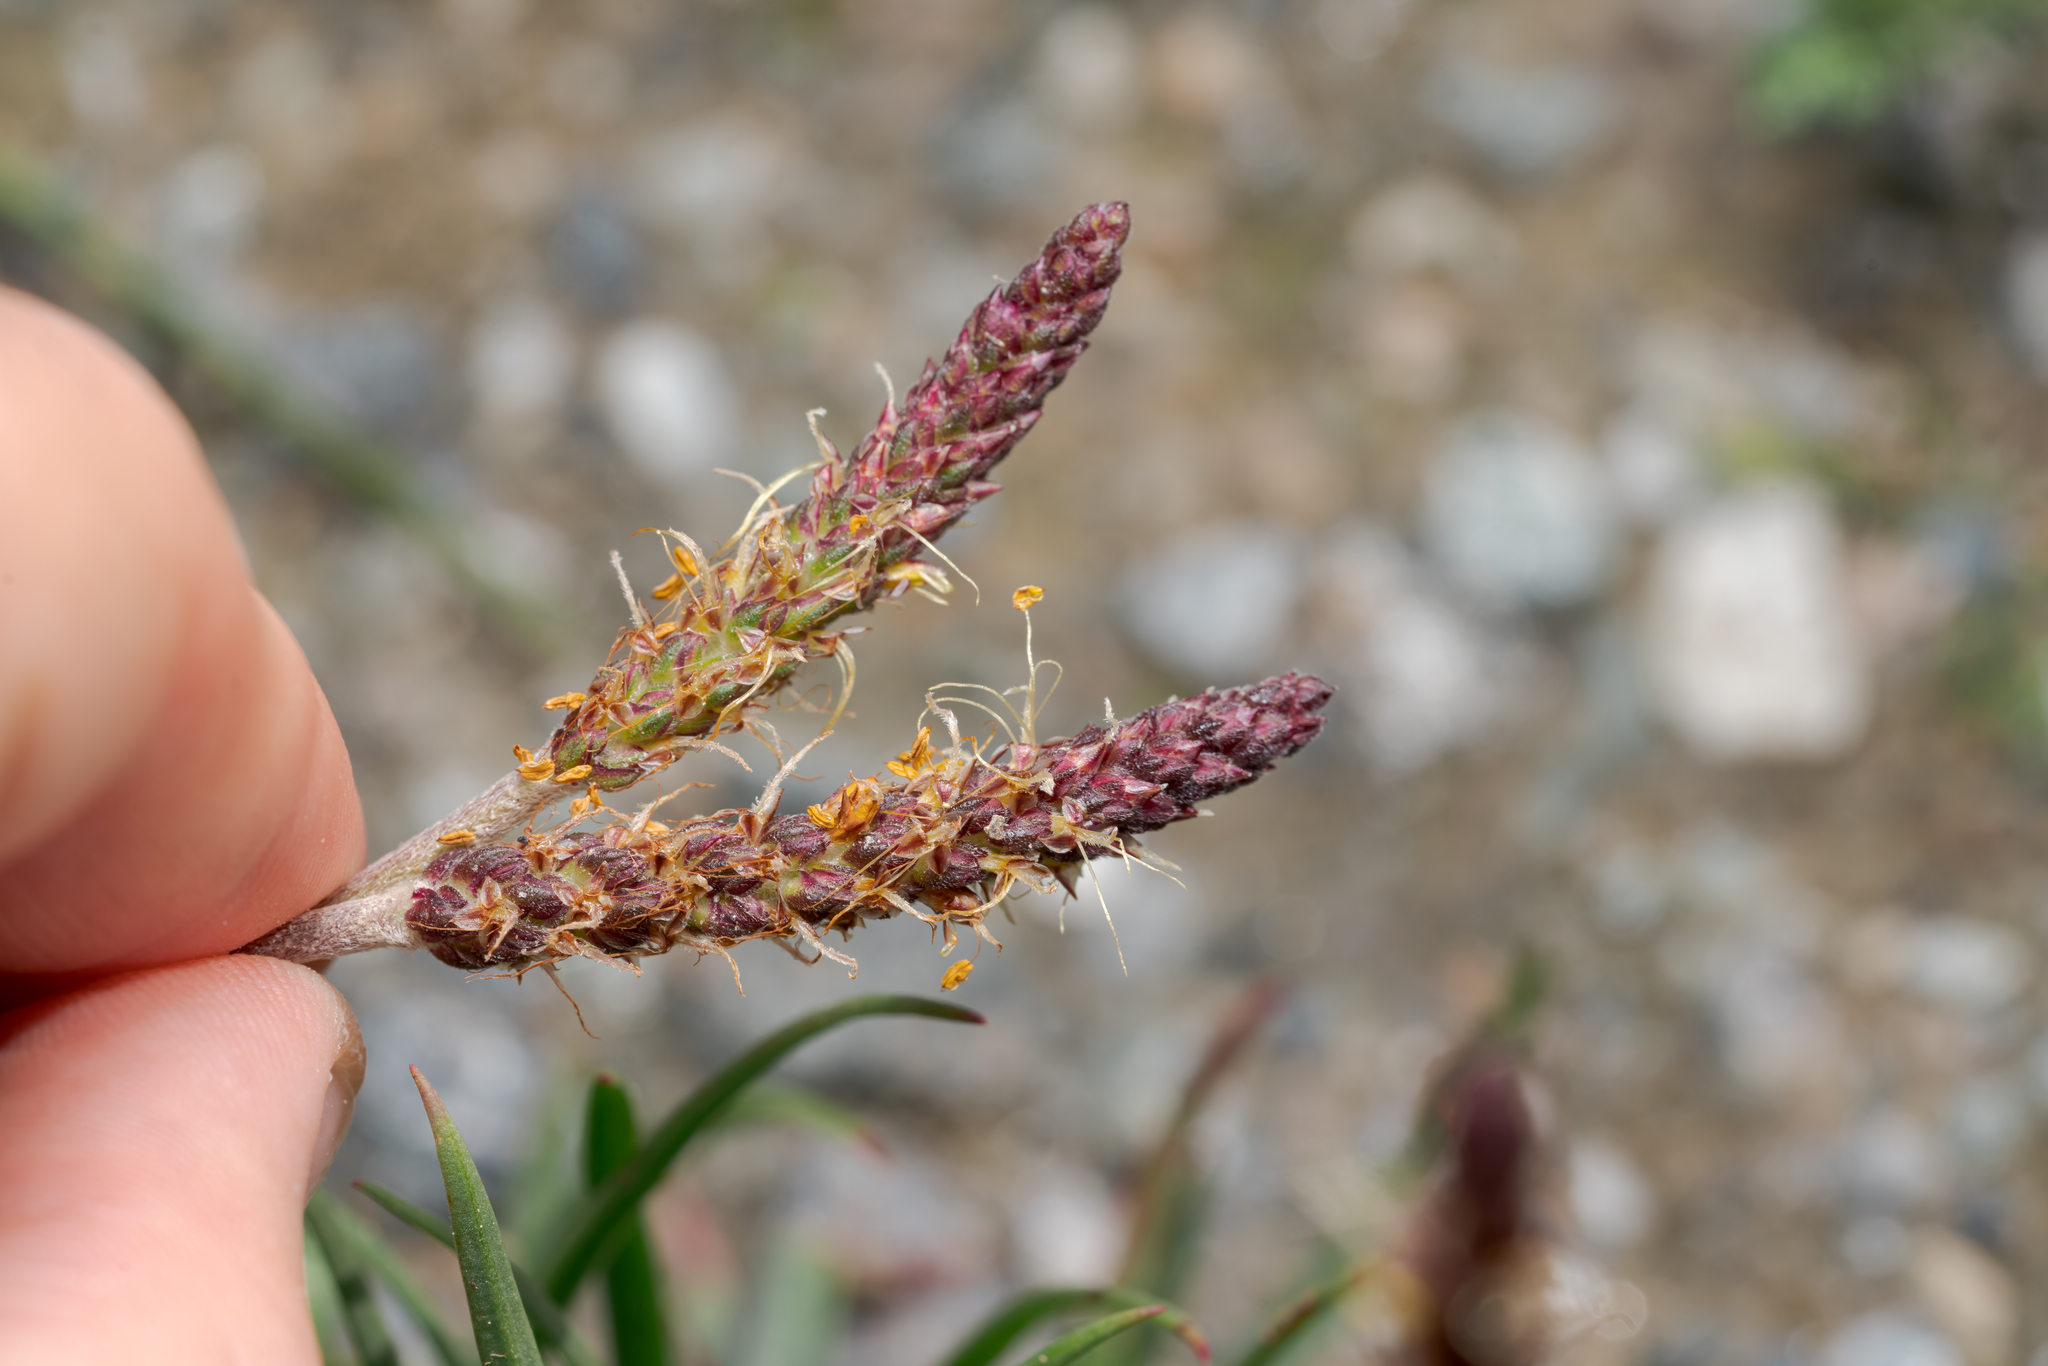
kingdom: Plantae
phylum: Tracheophyta
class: Magnoliopsida
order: Lamiales
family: Plantaginaceae
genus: Plantago
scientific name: Plantago alpina
